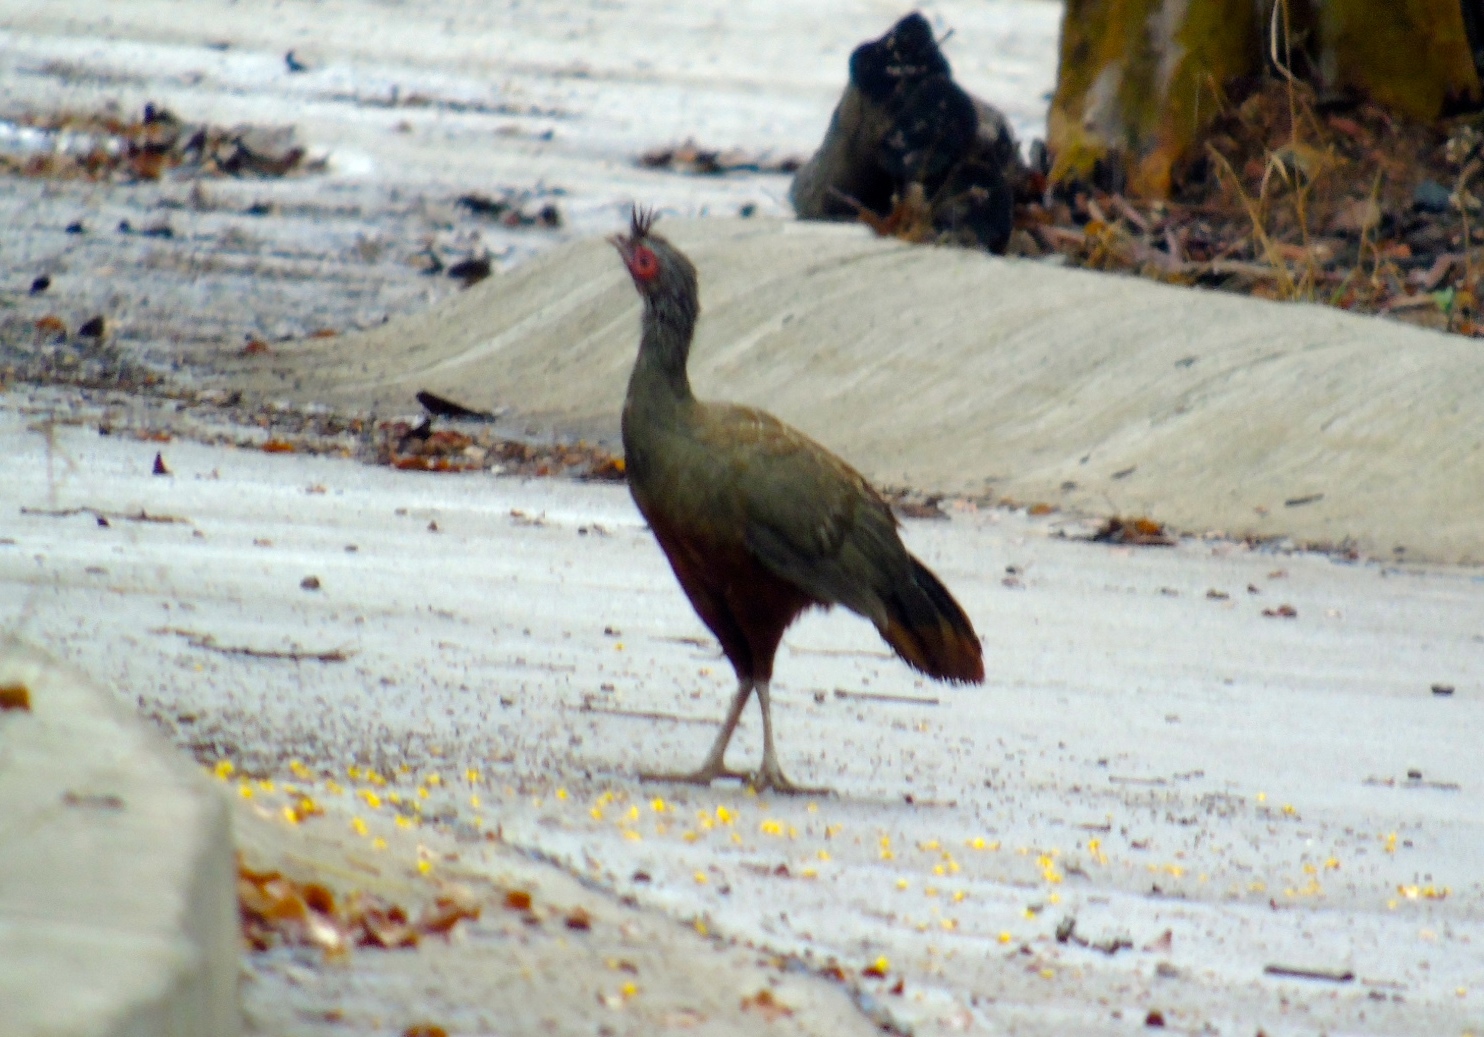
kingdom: Animalia
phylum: Chordata
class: Aves
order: Galliformes
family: Cracidae
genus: Ortalis
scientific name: Ortalis wagleri
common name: Rufous-bellied chachalaca
